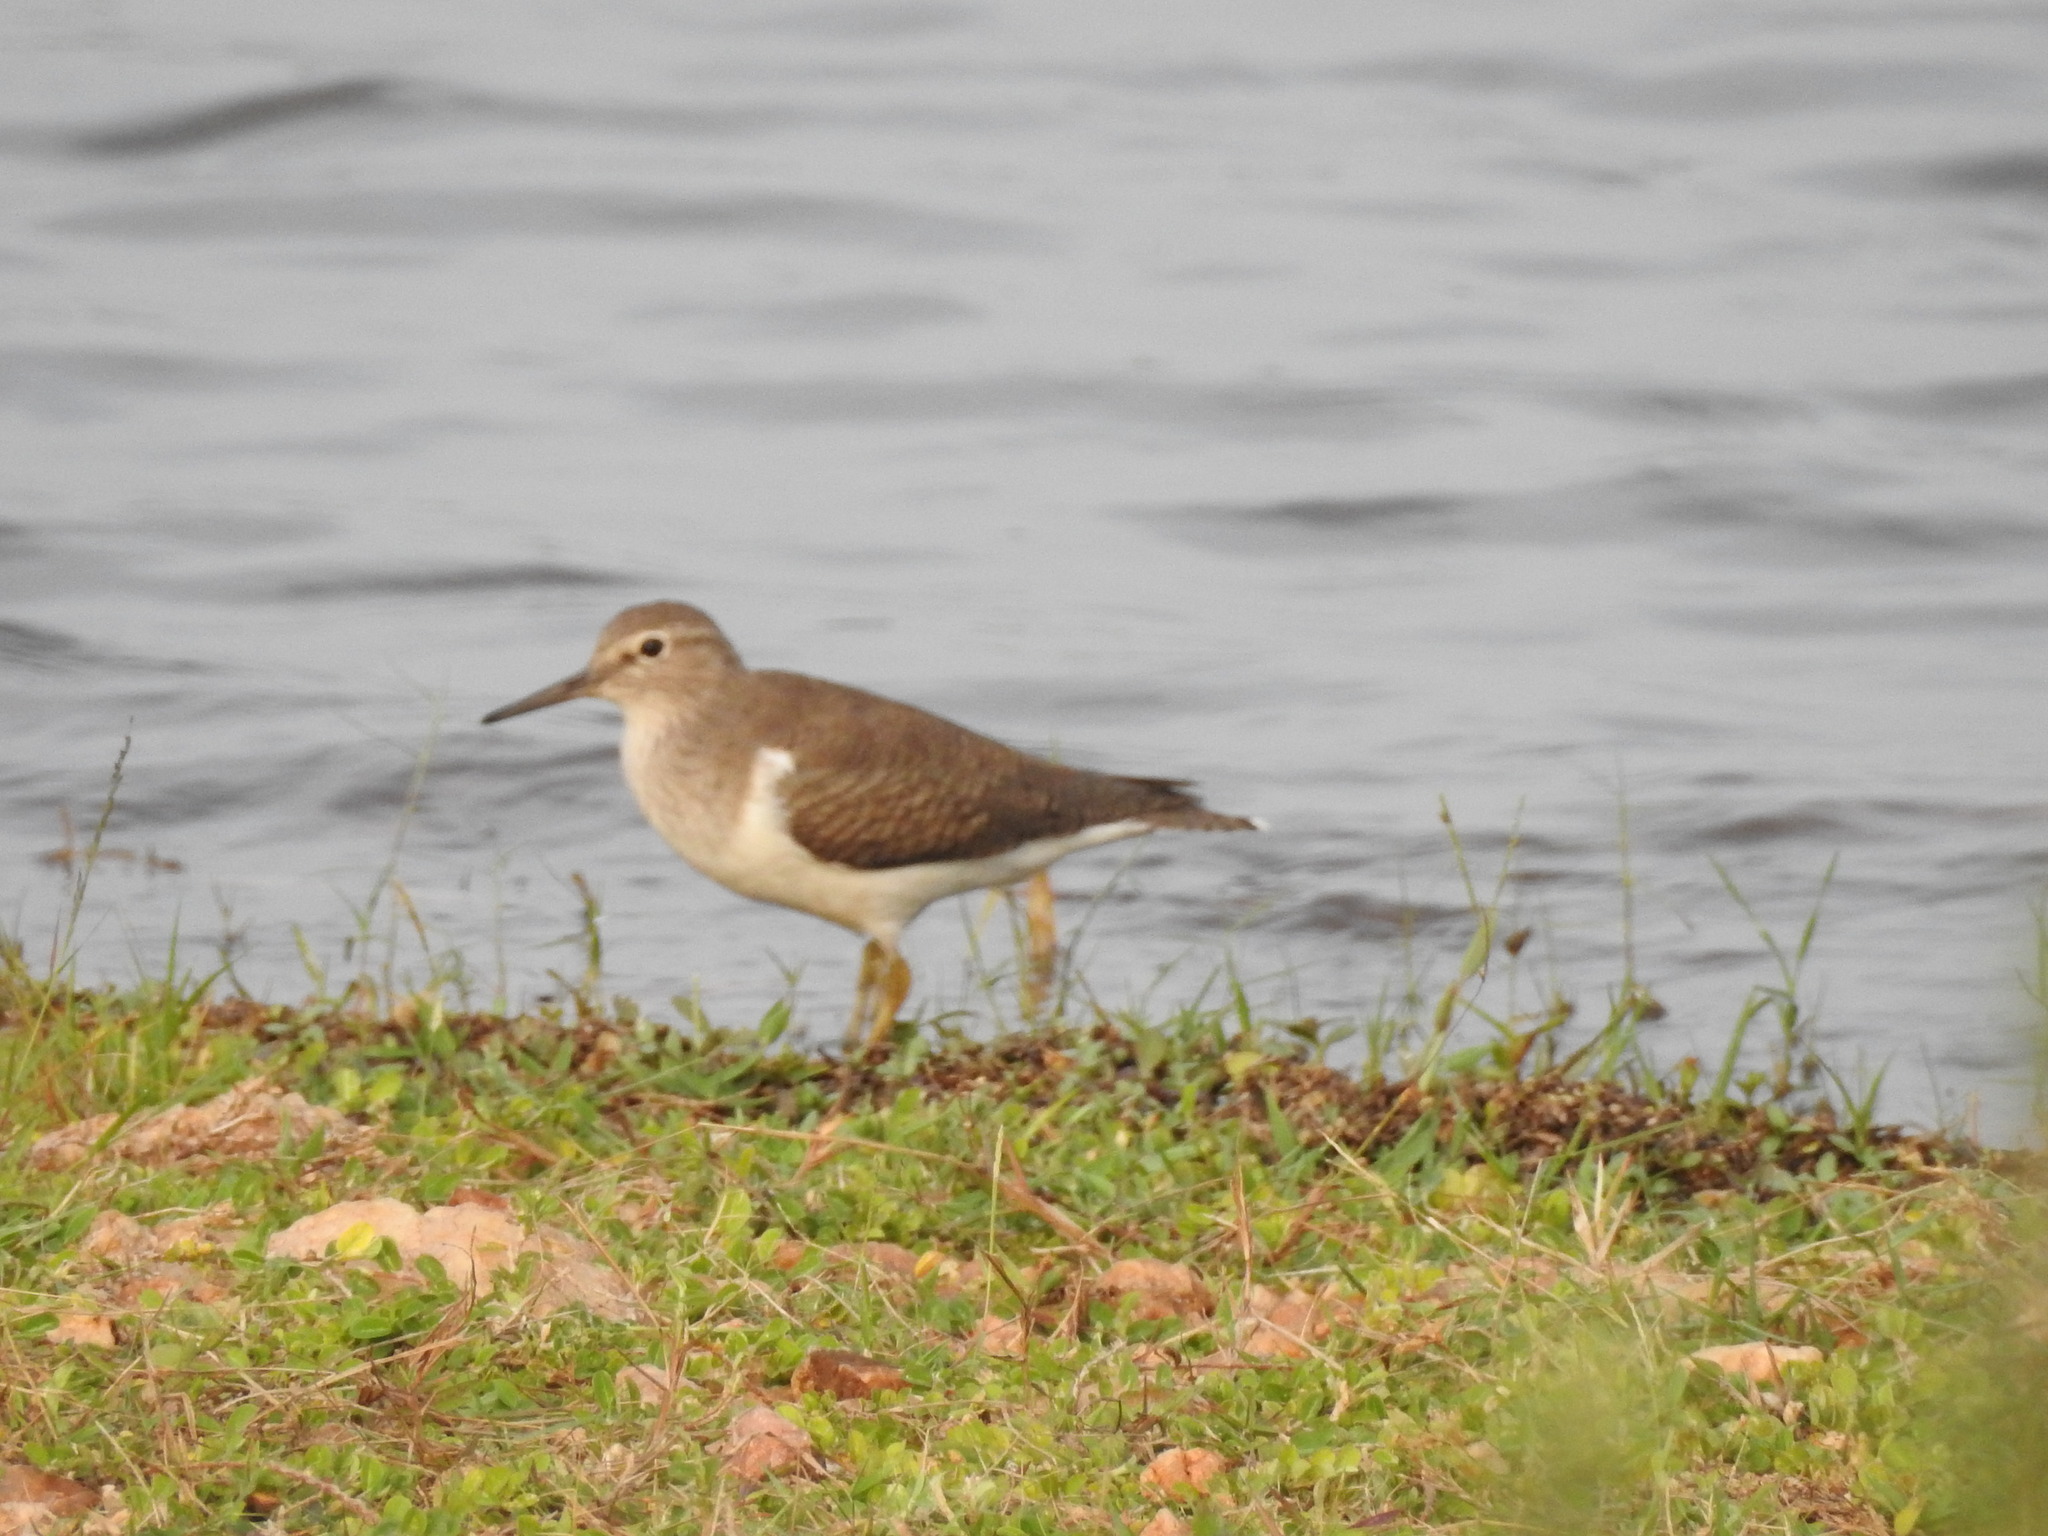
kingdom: Animalia
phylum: Chordata
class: Aves
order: Charadriiformes
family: Scolopacidae
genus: Actitis
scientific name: Actitis hypoleucos
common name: Common sandpiper
